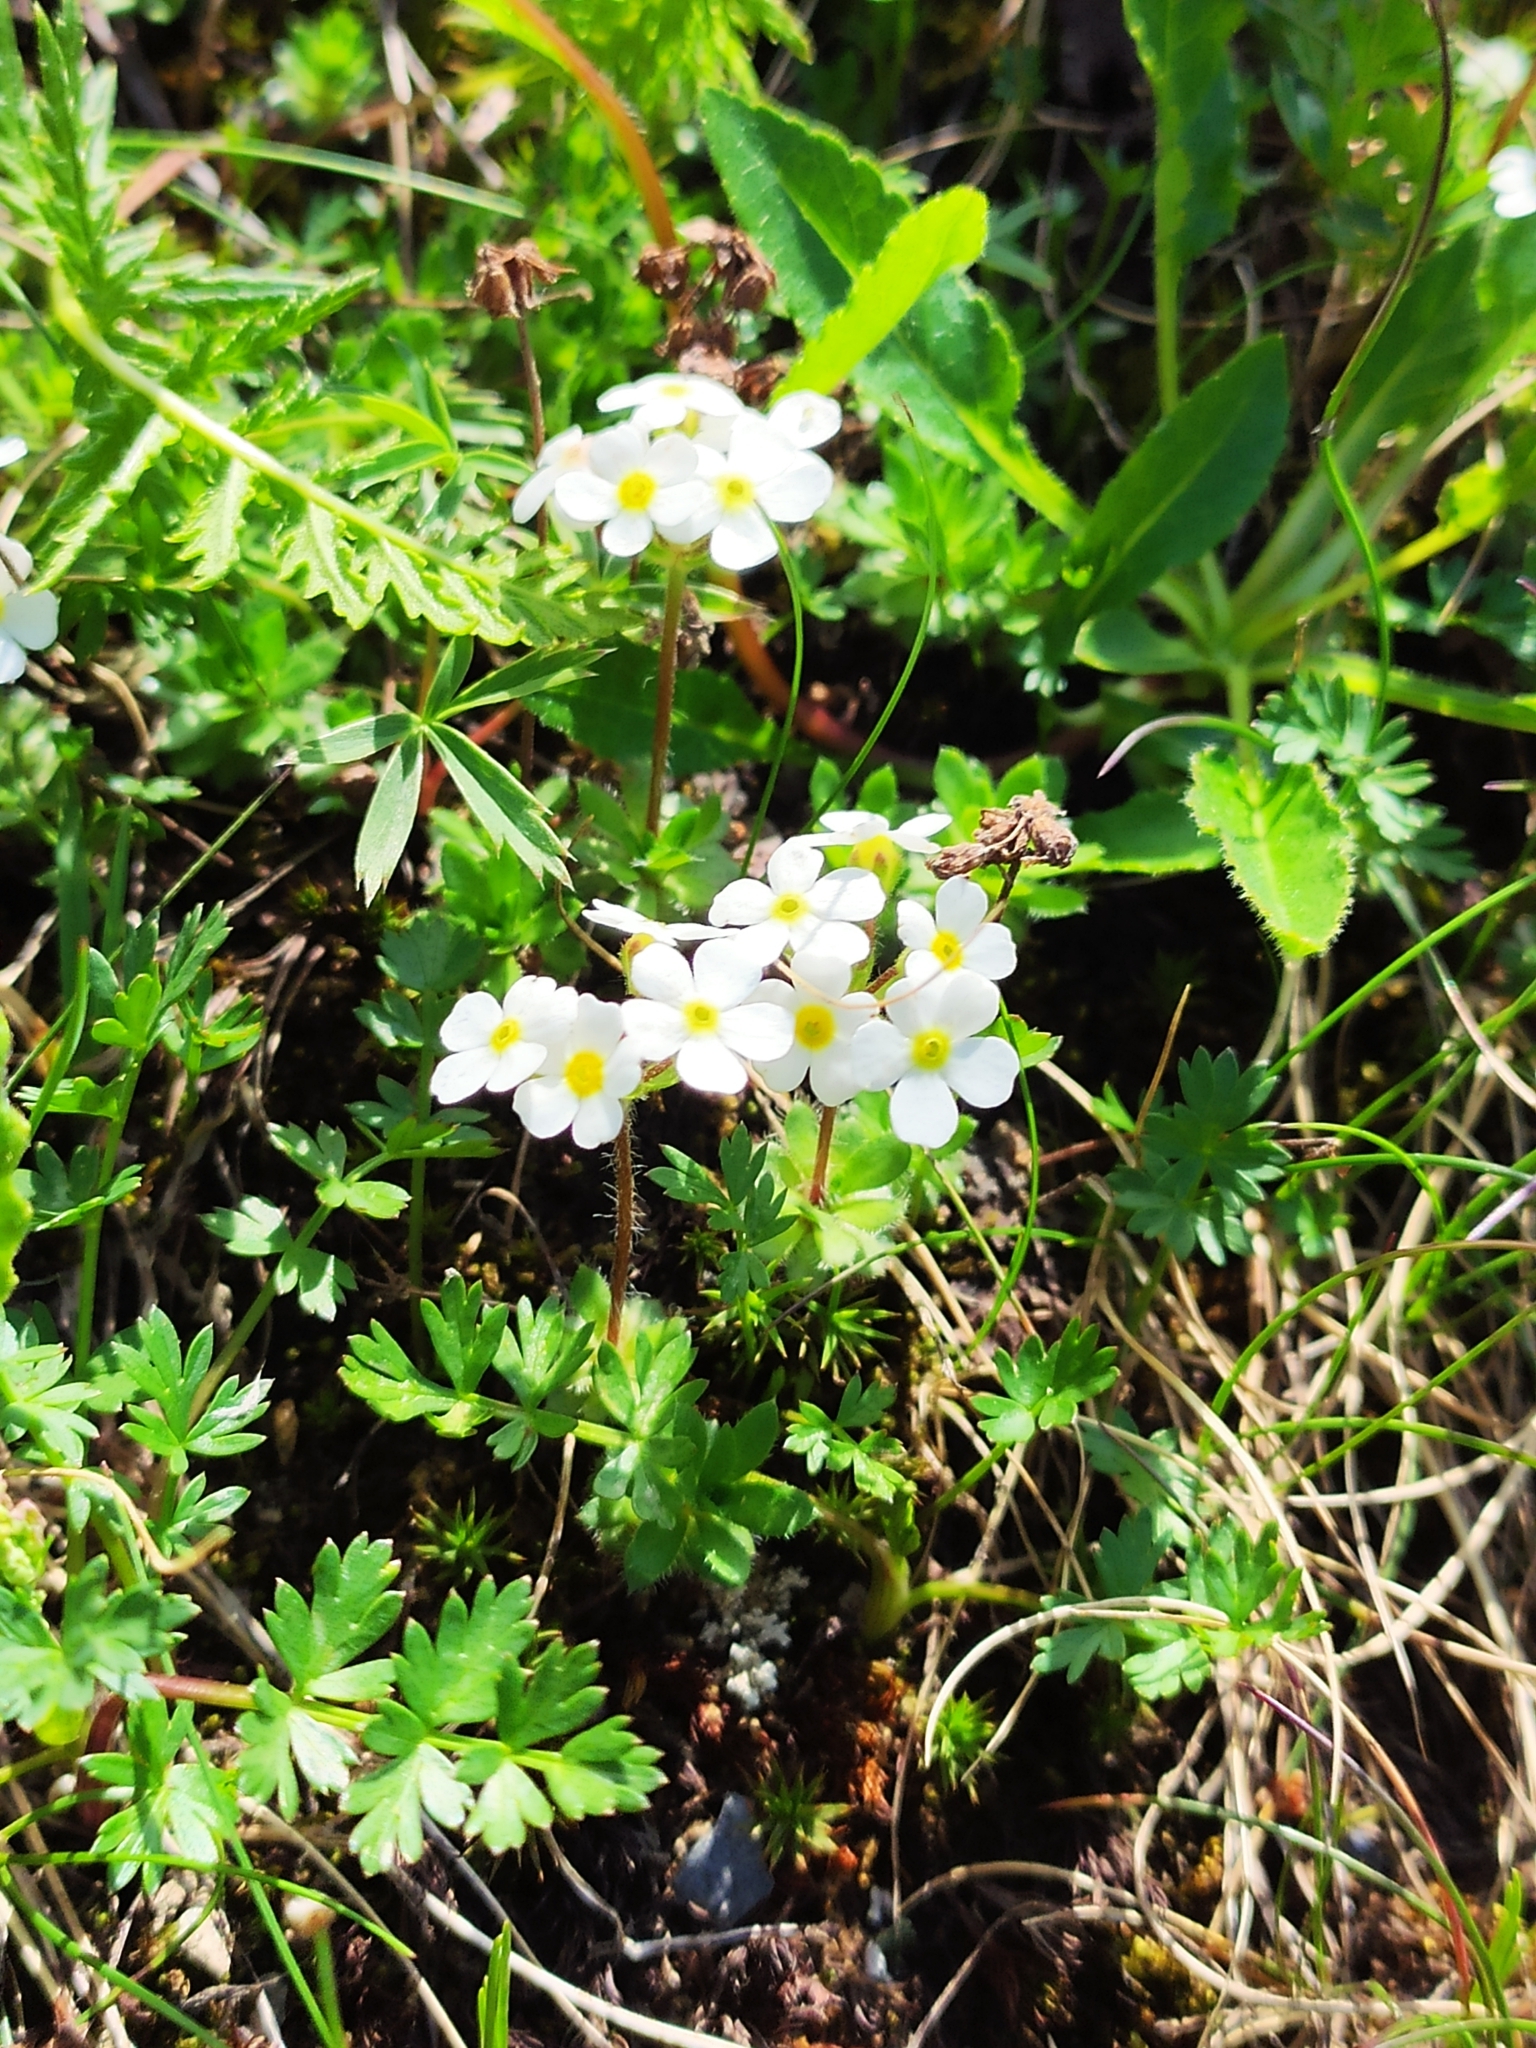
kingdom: Plantae
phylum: Tracheophyta
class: Magnoliopsida
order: Ericales
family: Primulaceae
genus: Androsace
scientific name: Androsace chamaejasme
